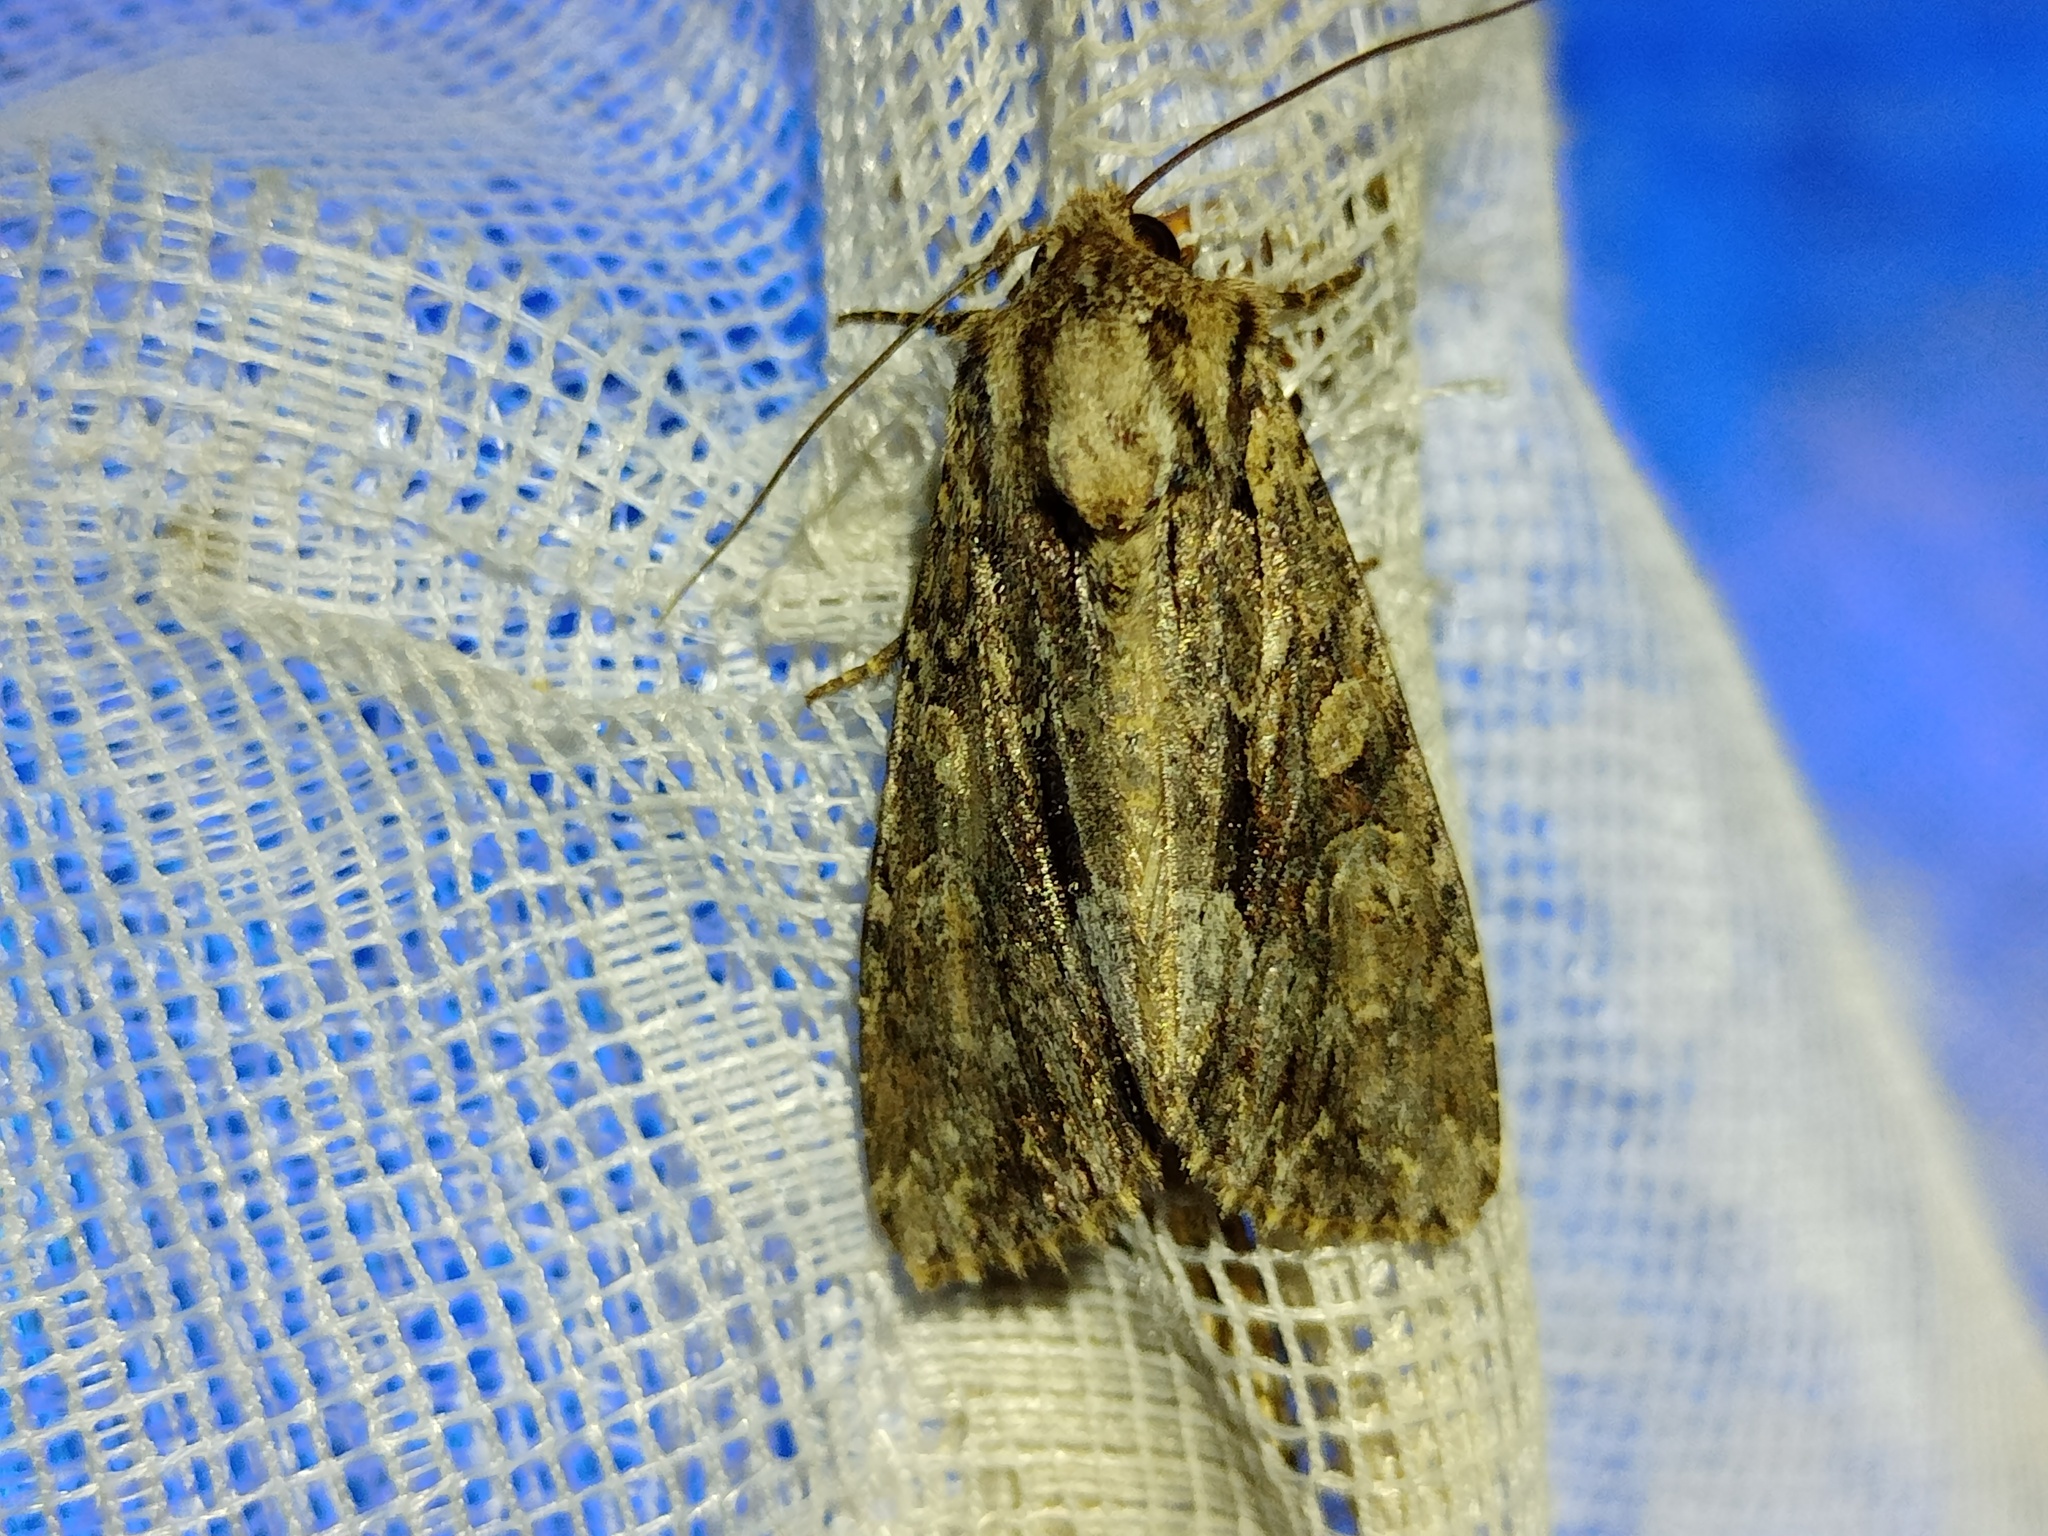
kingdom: Animalia
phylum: Arthropoda
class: Insecta
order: Lepidoptera
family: Noctuidae
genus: Apamea
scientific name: Apamea monoglypha
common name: Dark arches
